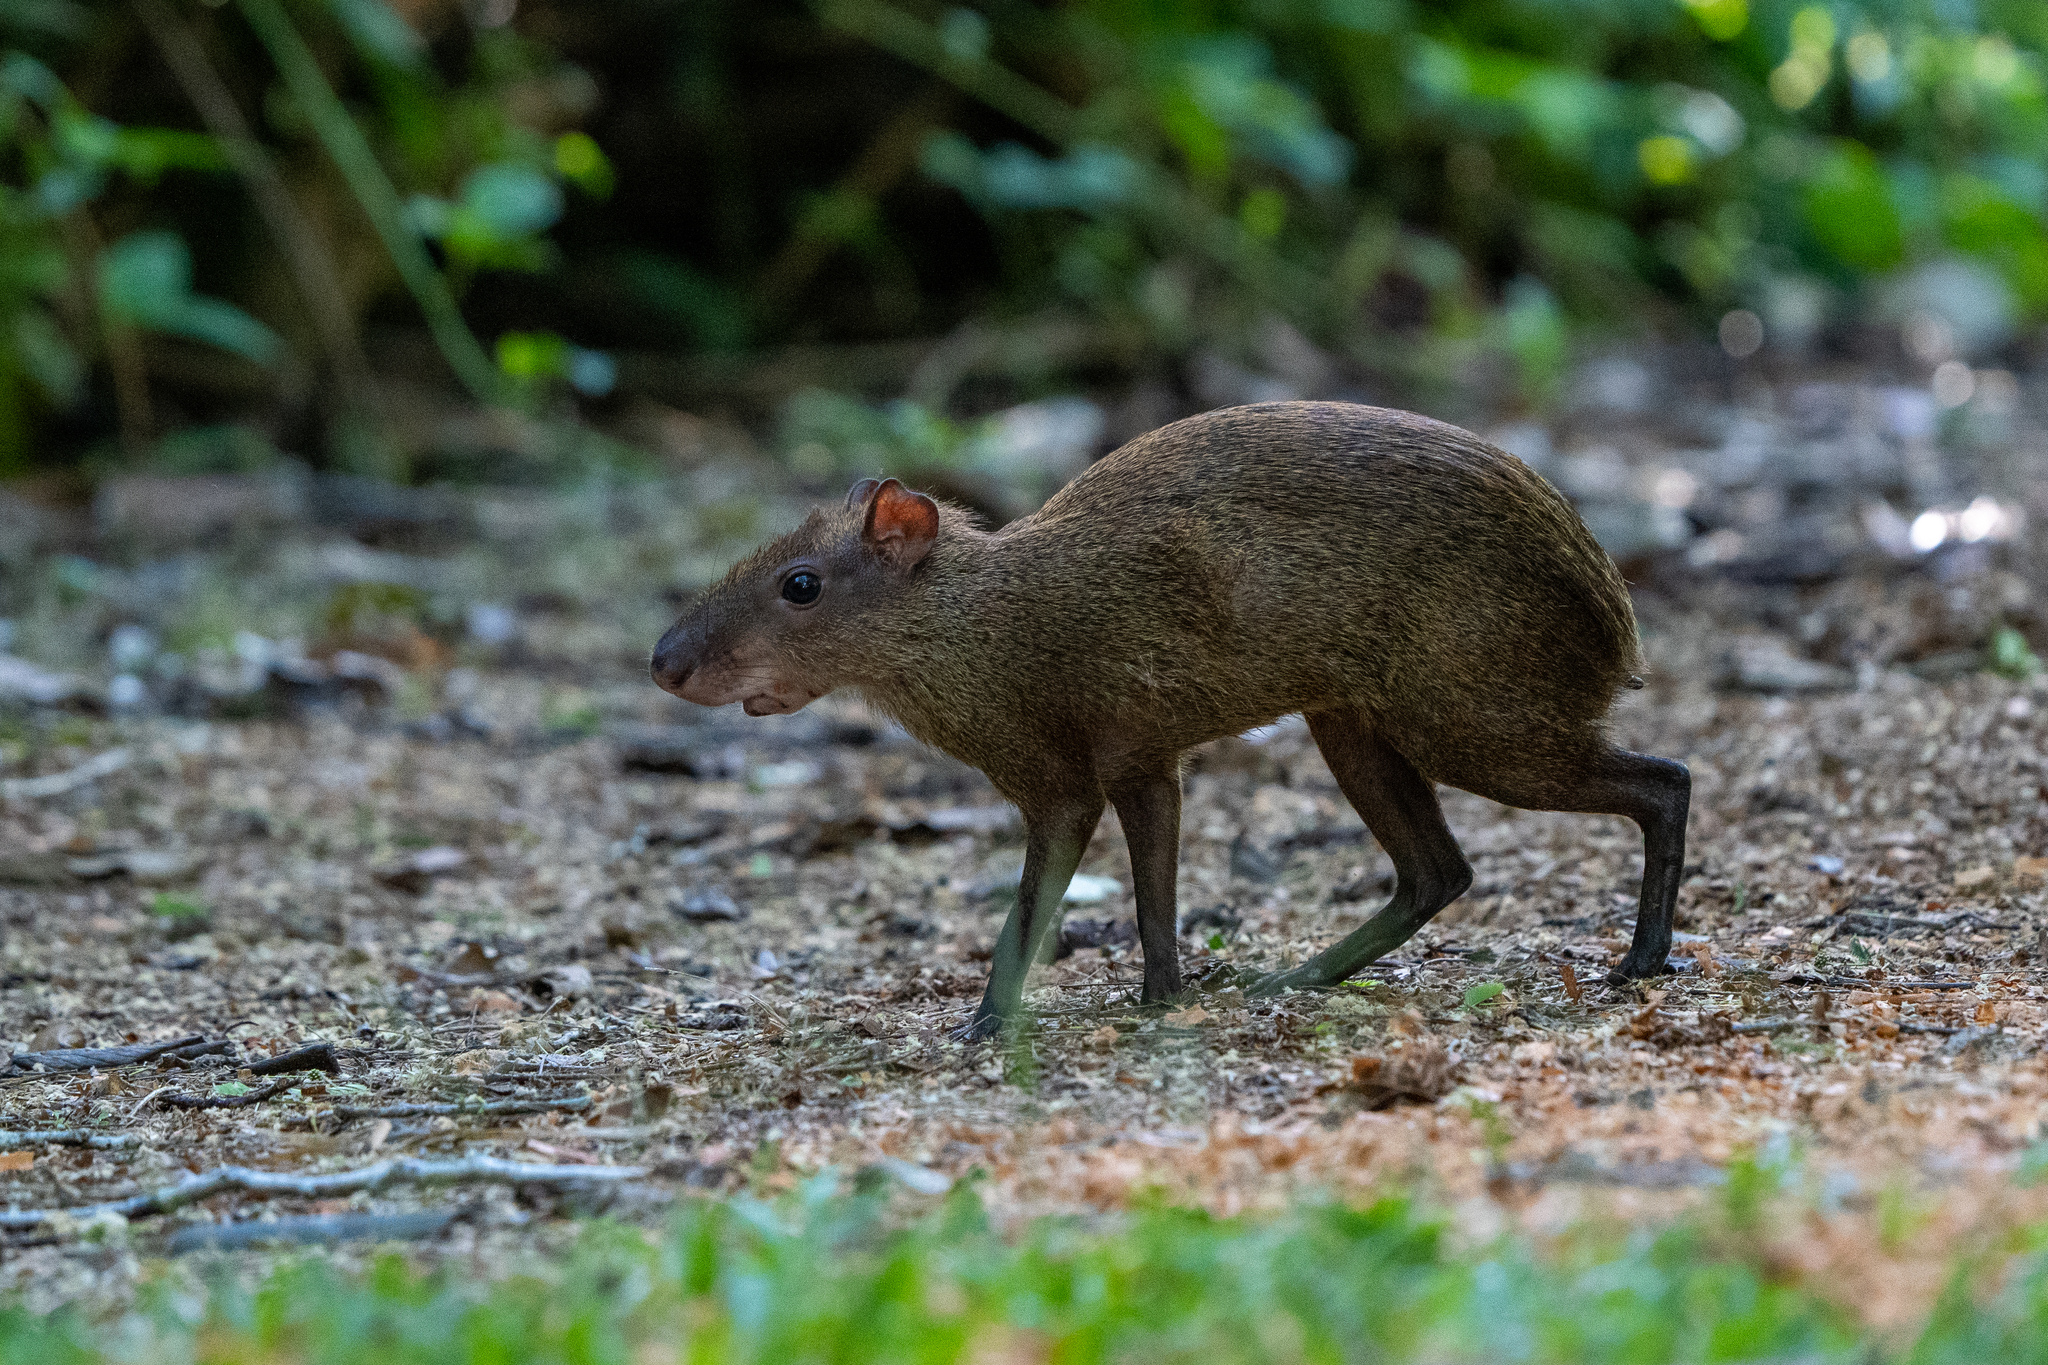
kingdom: Animalia
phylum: Chordata
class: Mammalia
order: Rodentia
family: Dasyproctidae
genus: Dasyprocta
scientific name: Dasyprocta punctata
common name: Central american agouti
